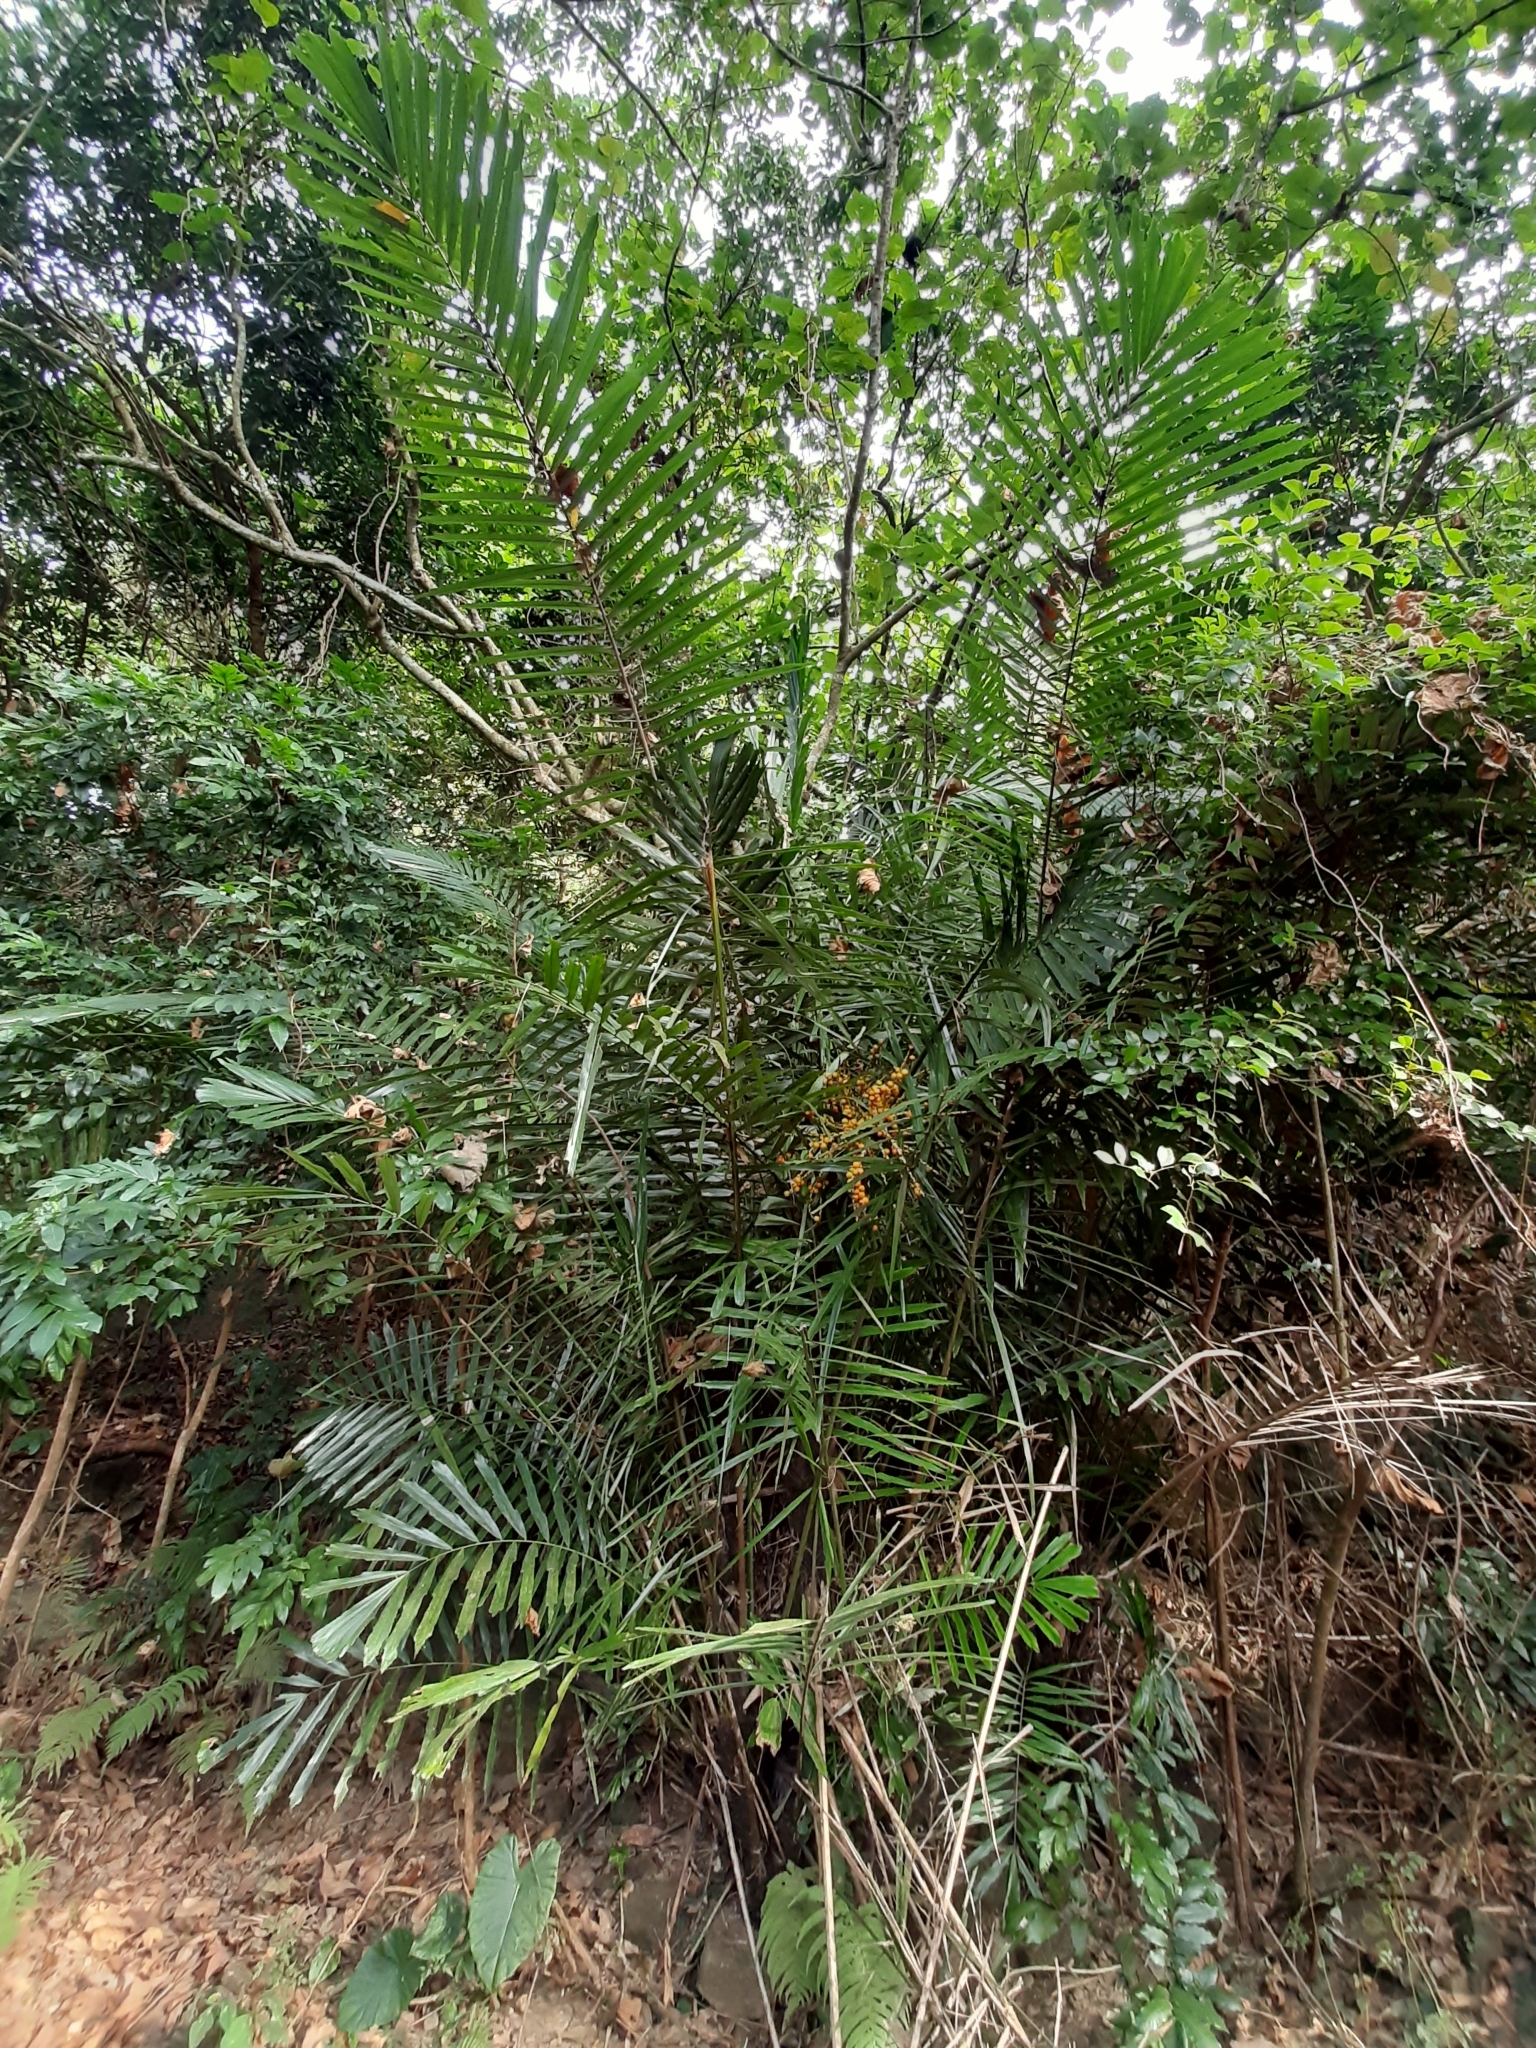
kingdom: Plantae
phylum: Tracheophyta
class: Liliopsida
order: Arecales
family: Arecaceae
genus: Arenga
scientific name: Arenga engleri
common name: Formosan sugar palm
